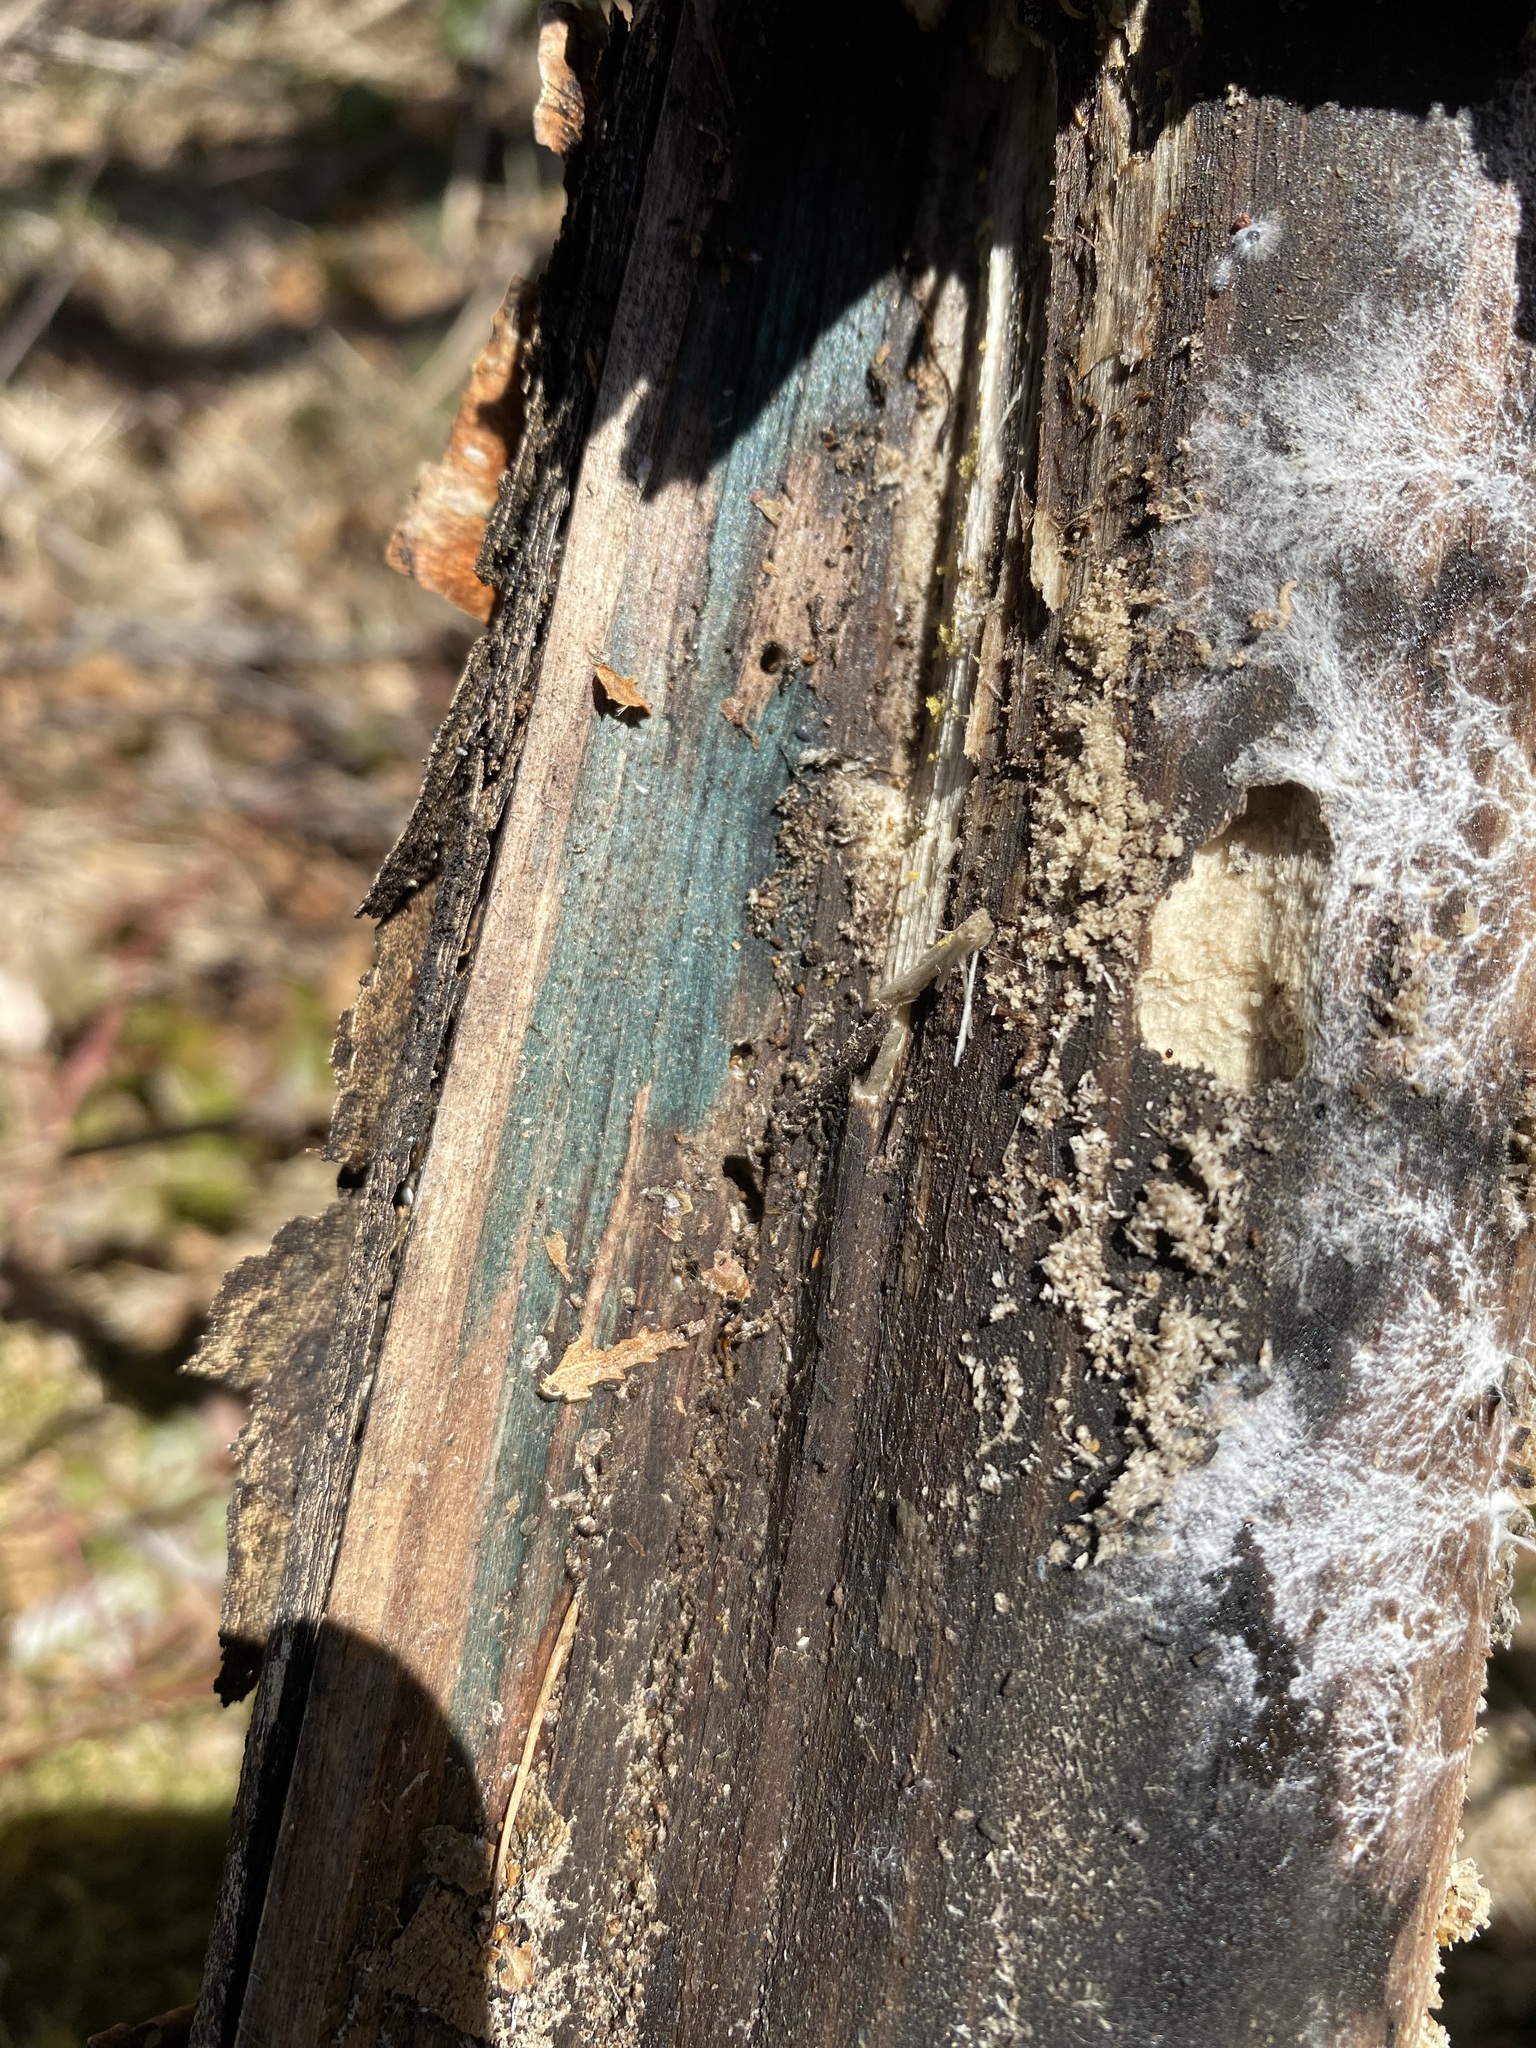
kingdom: Fungi
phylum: Ascomycota
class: Leotiomycetes
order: Helotiales
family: Chlorociboriaceae
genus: Chlorociboria
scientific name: Chlorociboria aeruginascens
